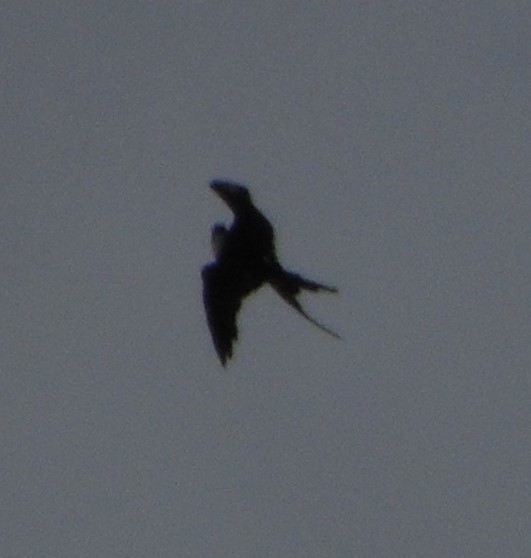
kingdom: Animalia
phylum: Chordata
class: Aves
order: Suliformes
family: Fregatidae
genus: Fregata
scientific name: Fregata magnificens
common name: Magnificent frigatebird
